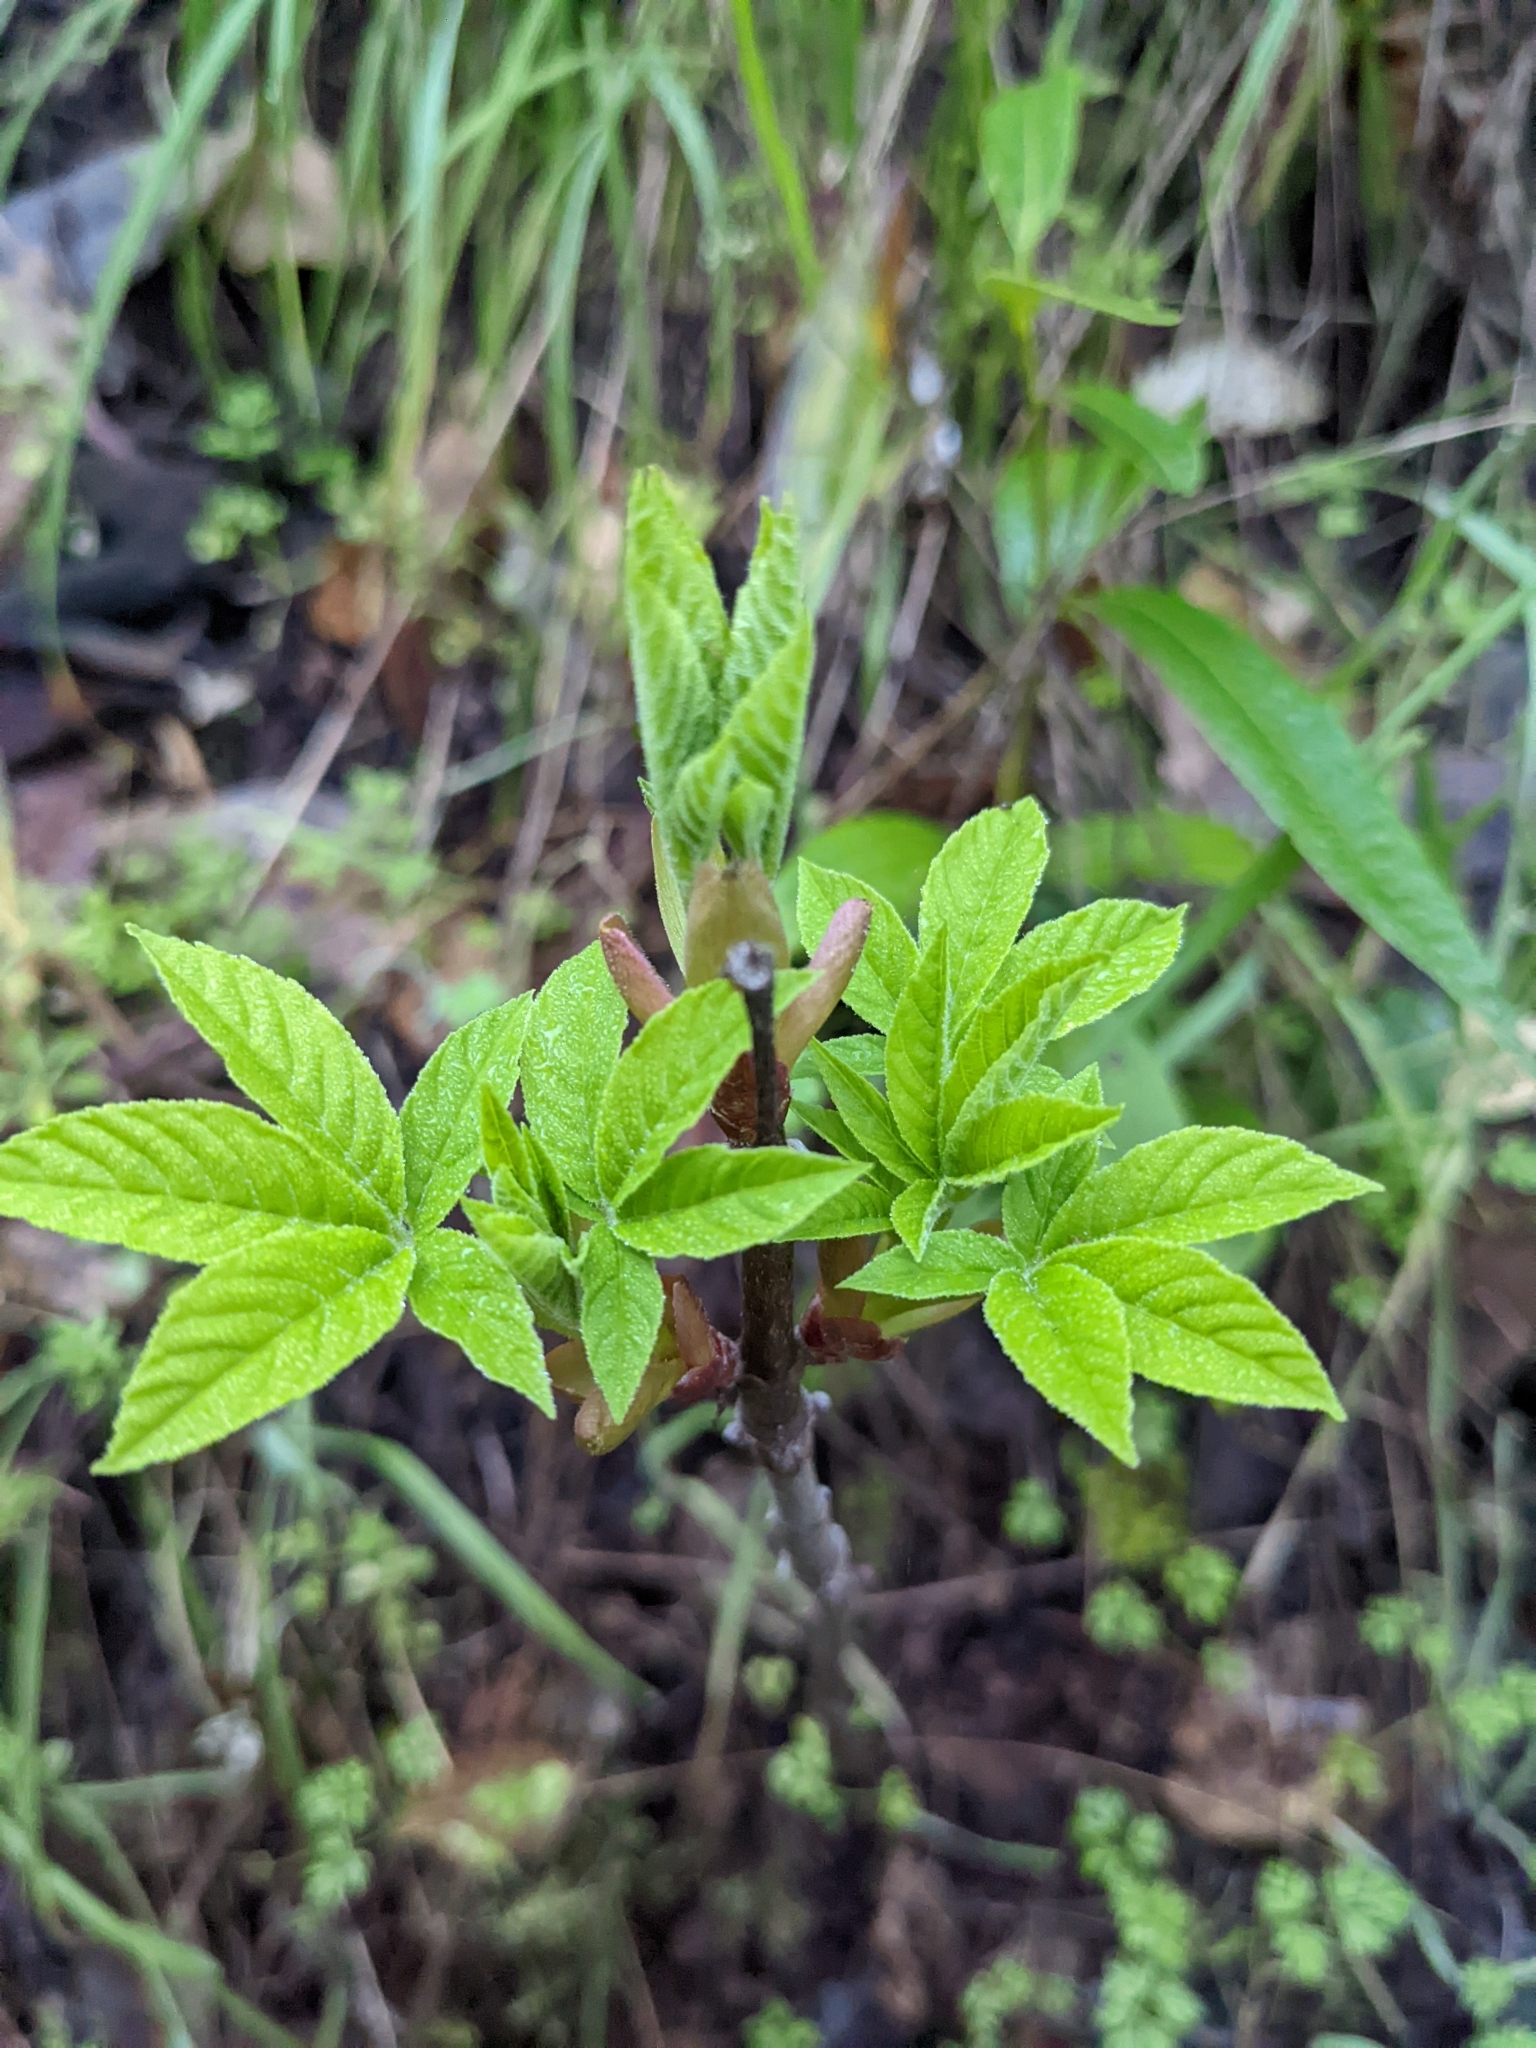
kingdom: Plantae
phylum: Tracheophyta
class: Magnoliopsida
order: Sapindales
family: Sapindaceae
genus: Aesculus
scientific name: Aesculus californica
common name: California buckeye
